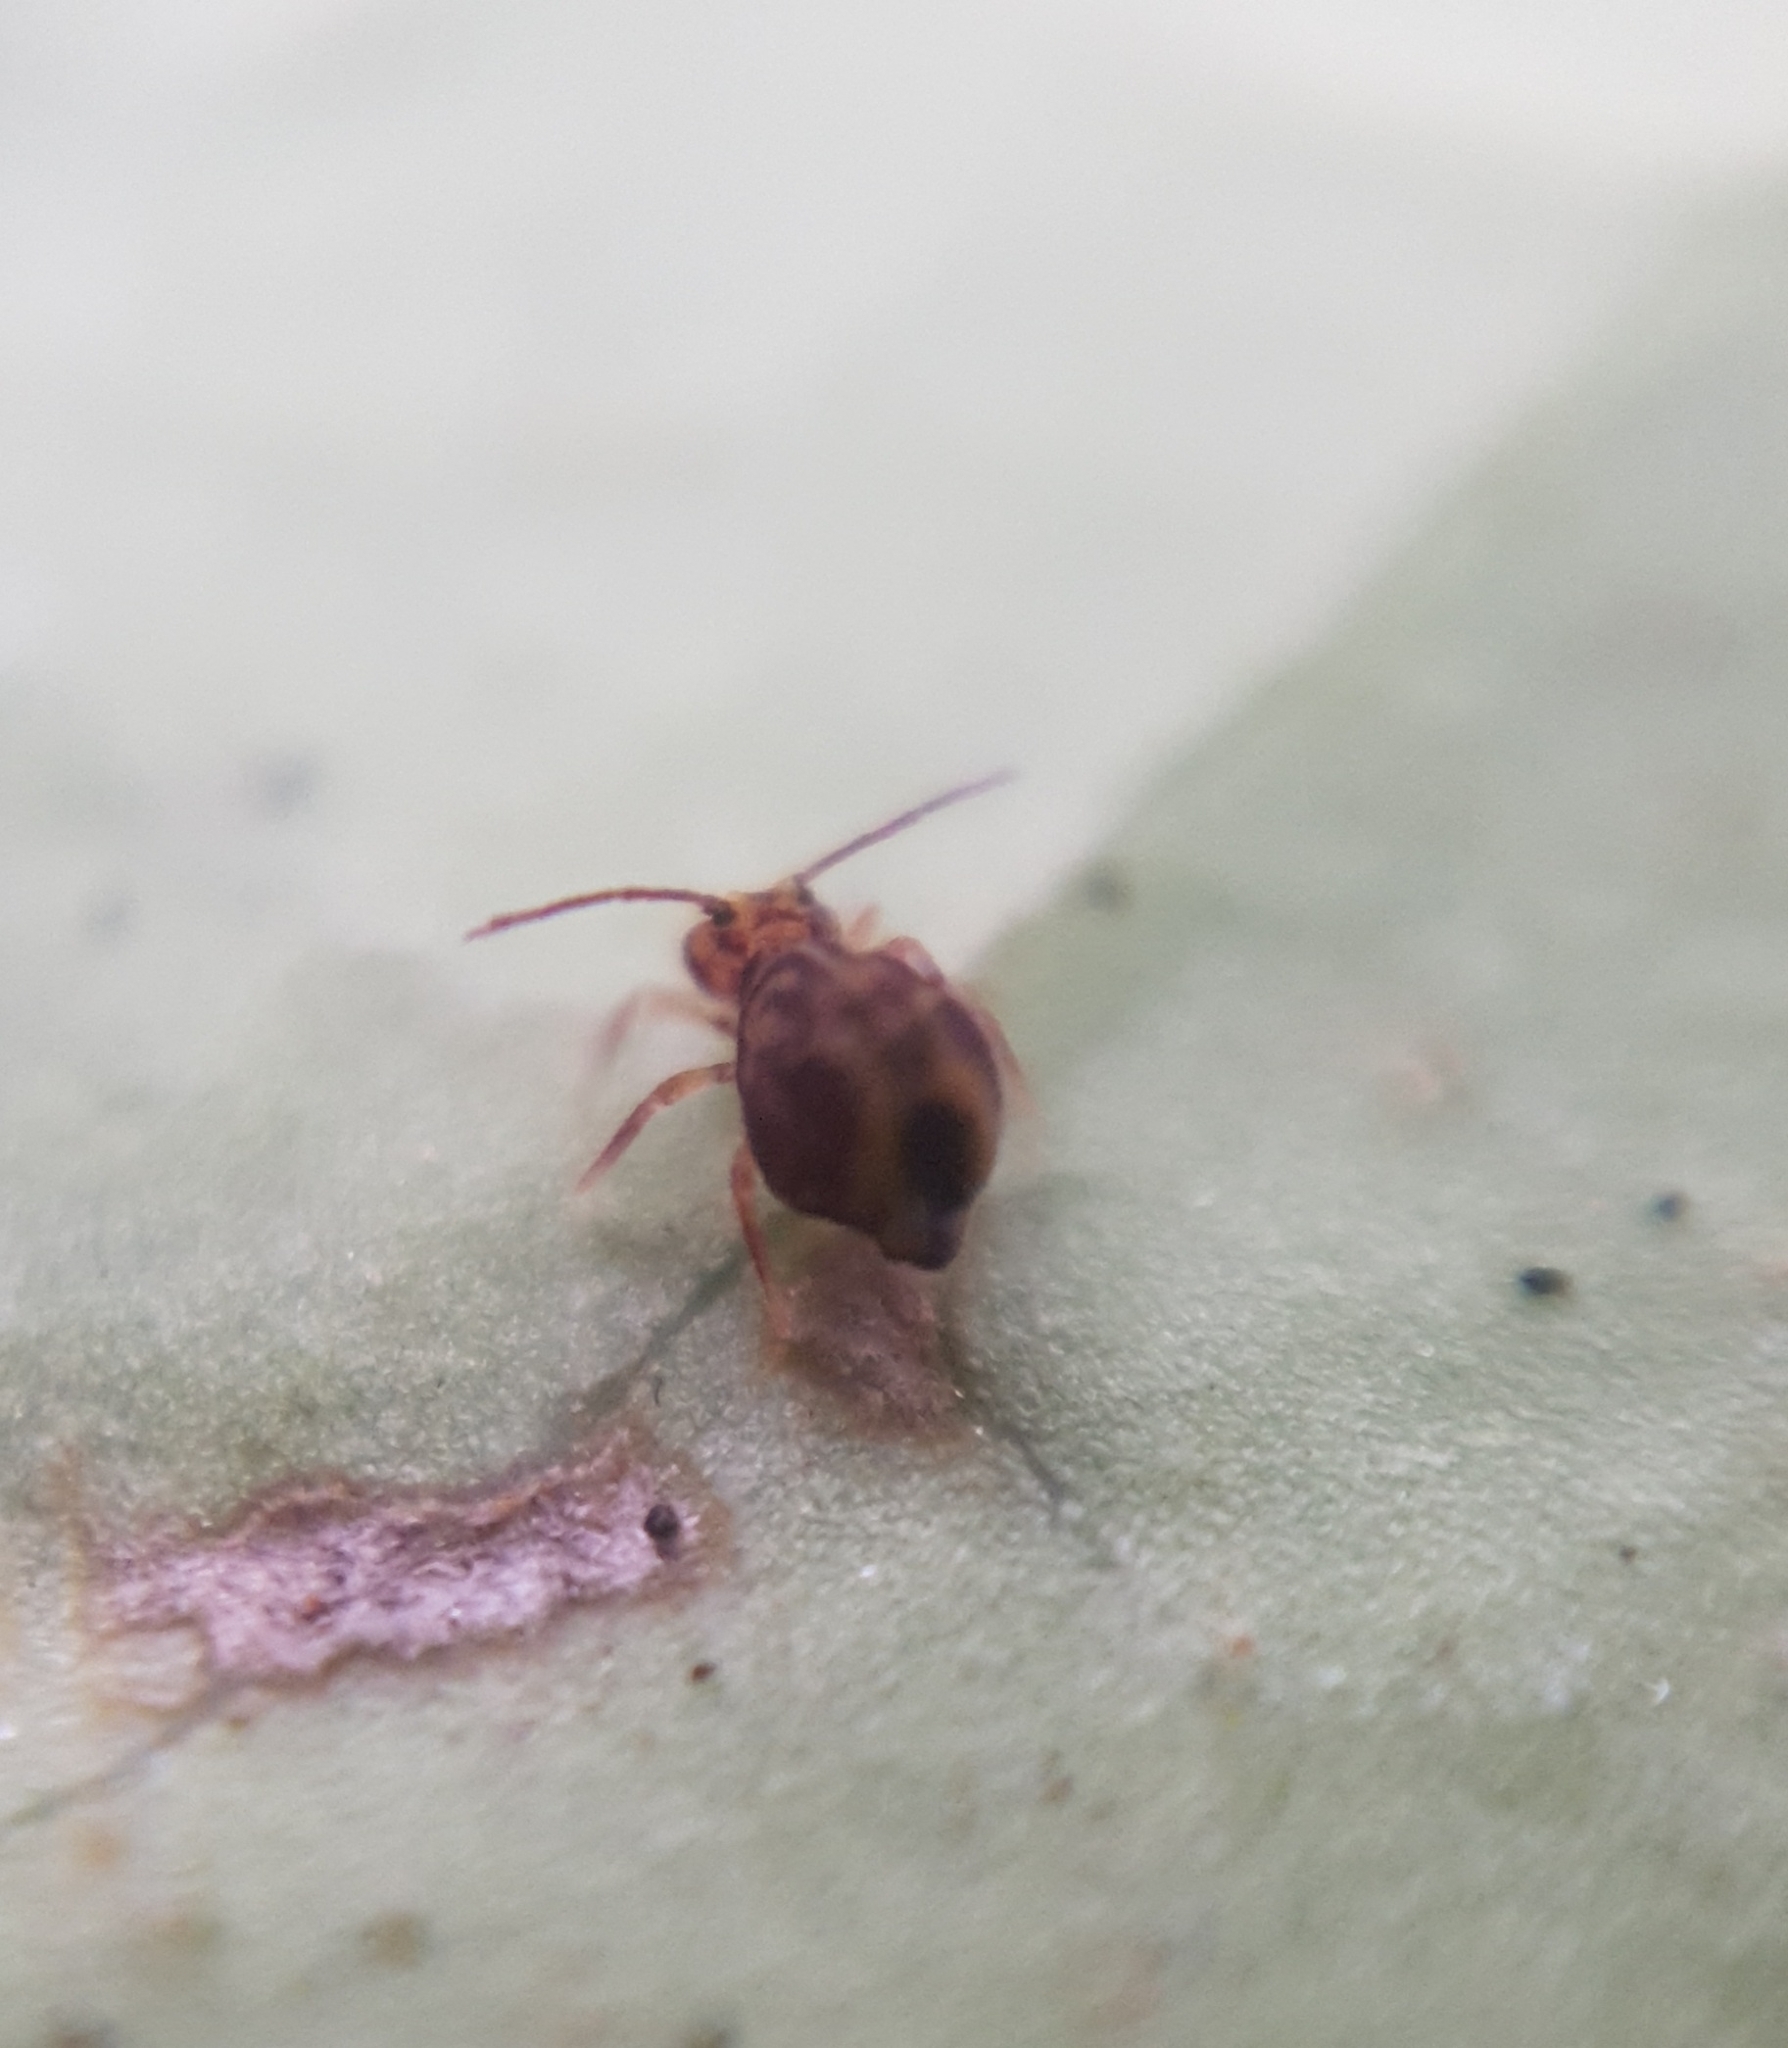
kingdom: Animalia
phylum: Arthropoda
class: Collembola
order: Symphypleona
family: Dicyrtomidae
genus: Dicyrtomina
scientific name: Dicyrtomina ornata
